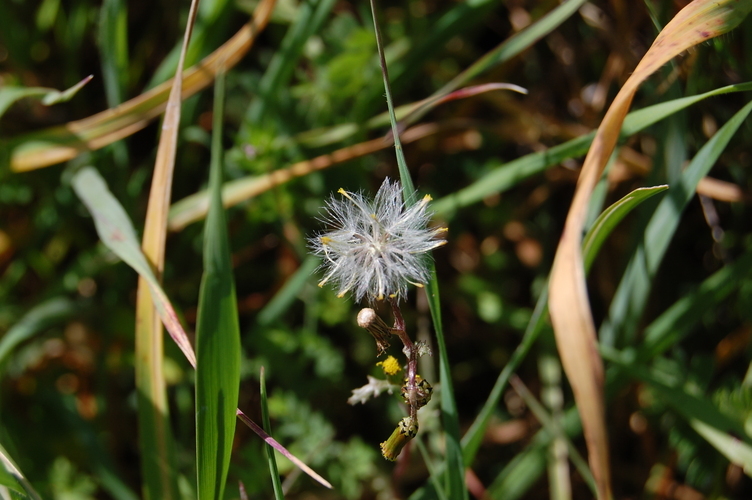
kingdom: Plantae
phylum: Tracheophyta
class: Magnoliopsida
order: Asterales
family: Asteraceae
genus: Senecio
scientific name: Senecio vulgaris
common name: Old-man-in-the-spring
